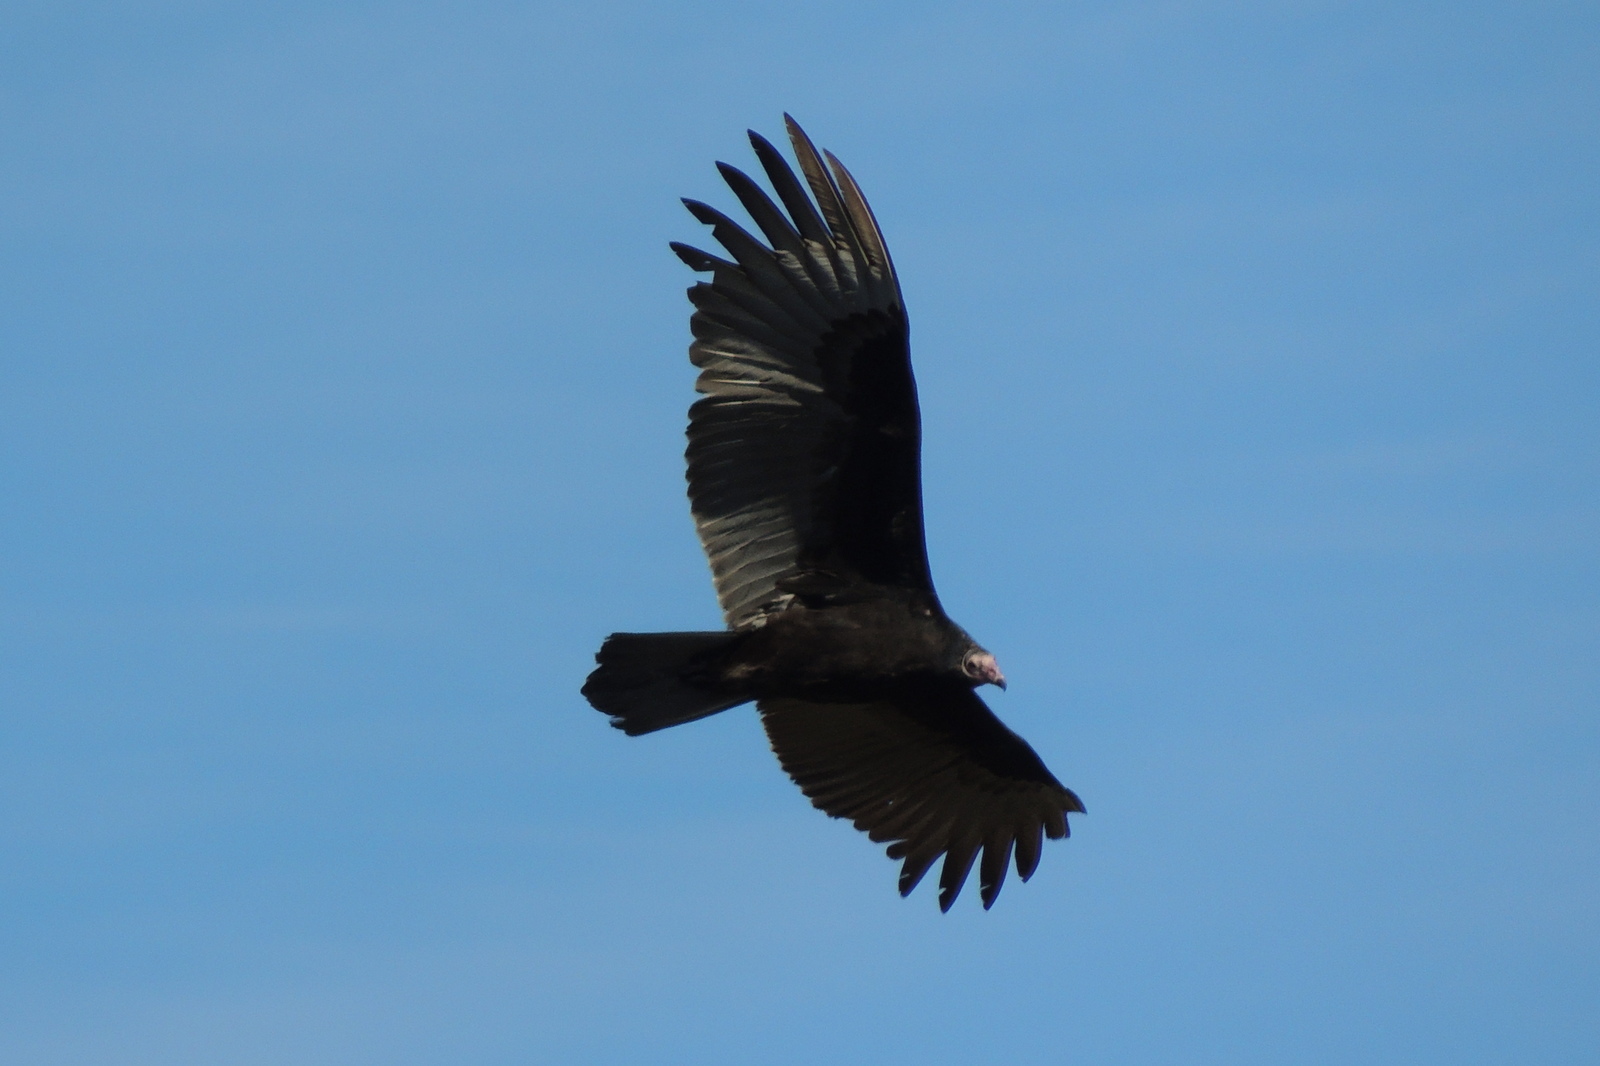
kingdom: Animalia
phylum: Chordata
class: Aves
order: Accipitriformes
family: Cathartidae
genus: Cathartes
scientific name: Cathartes aura
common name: Turkey vulture
